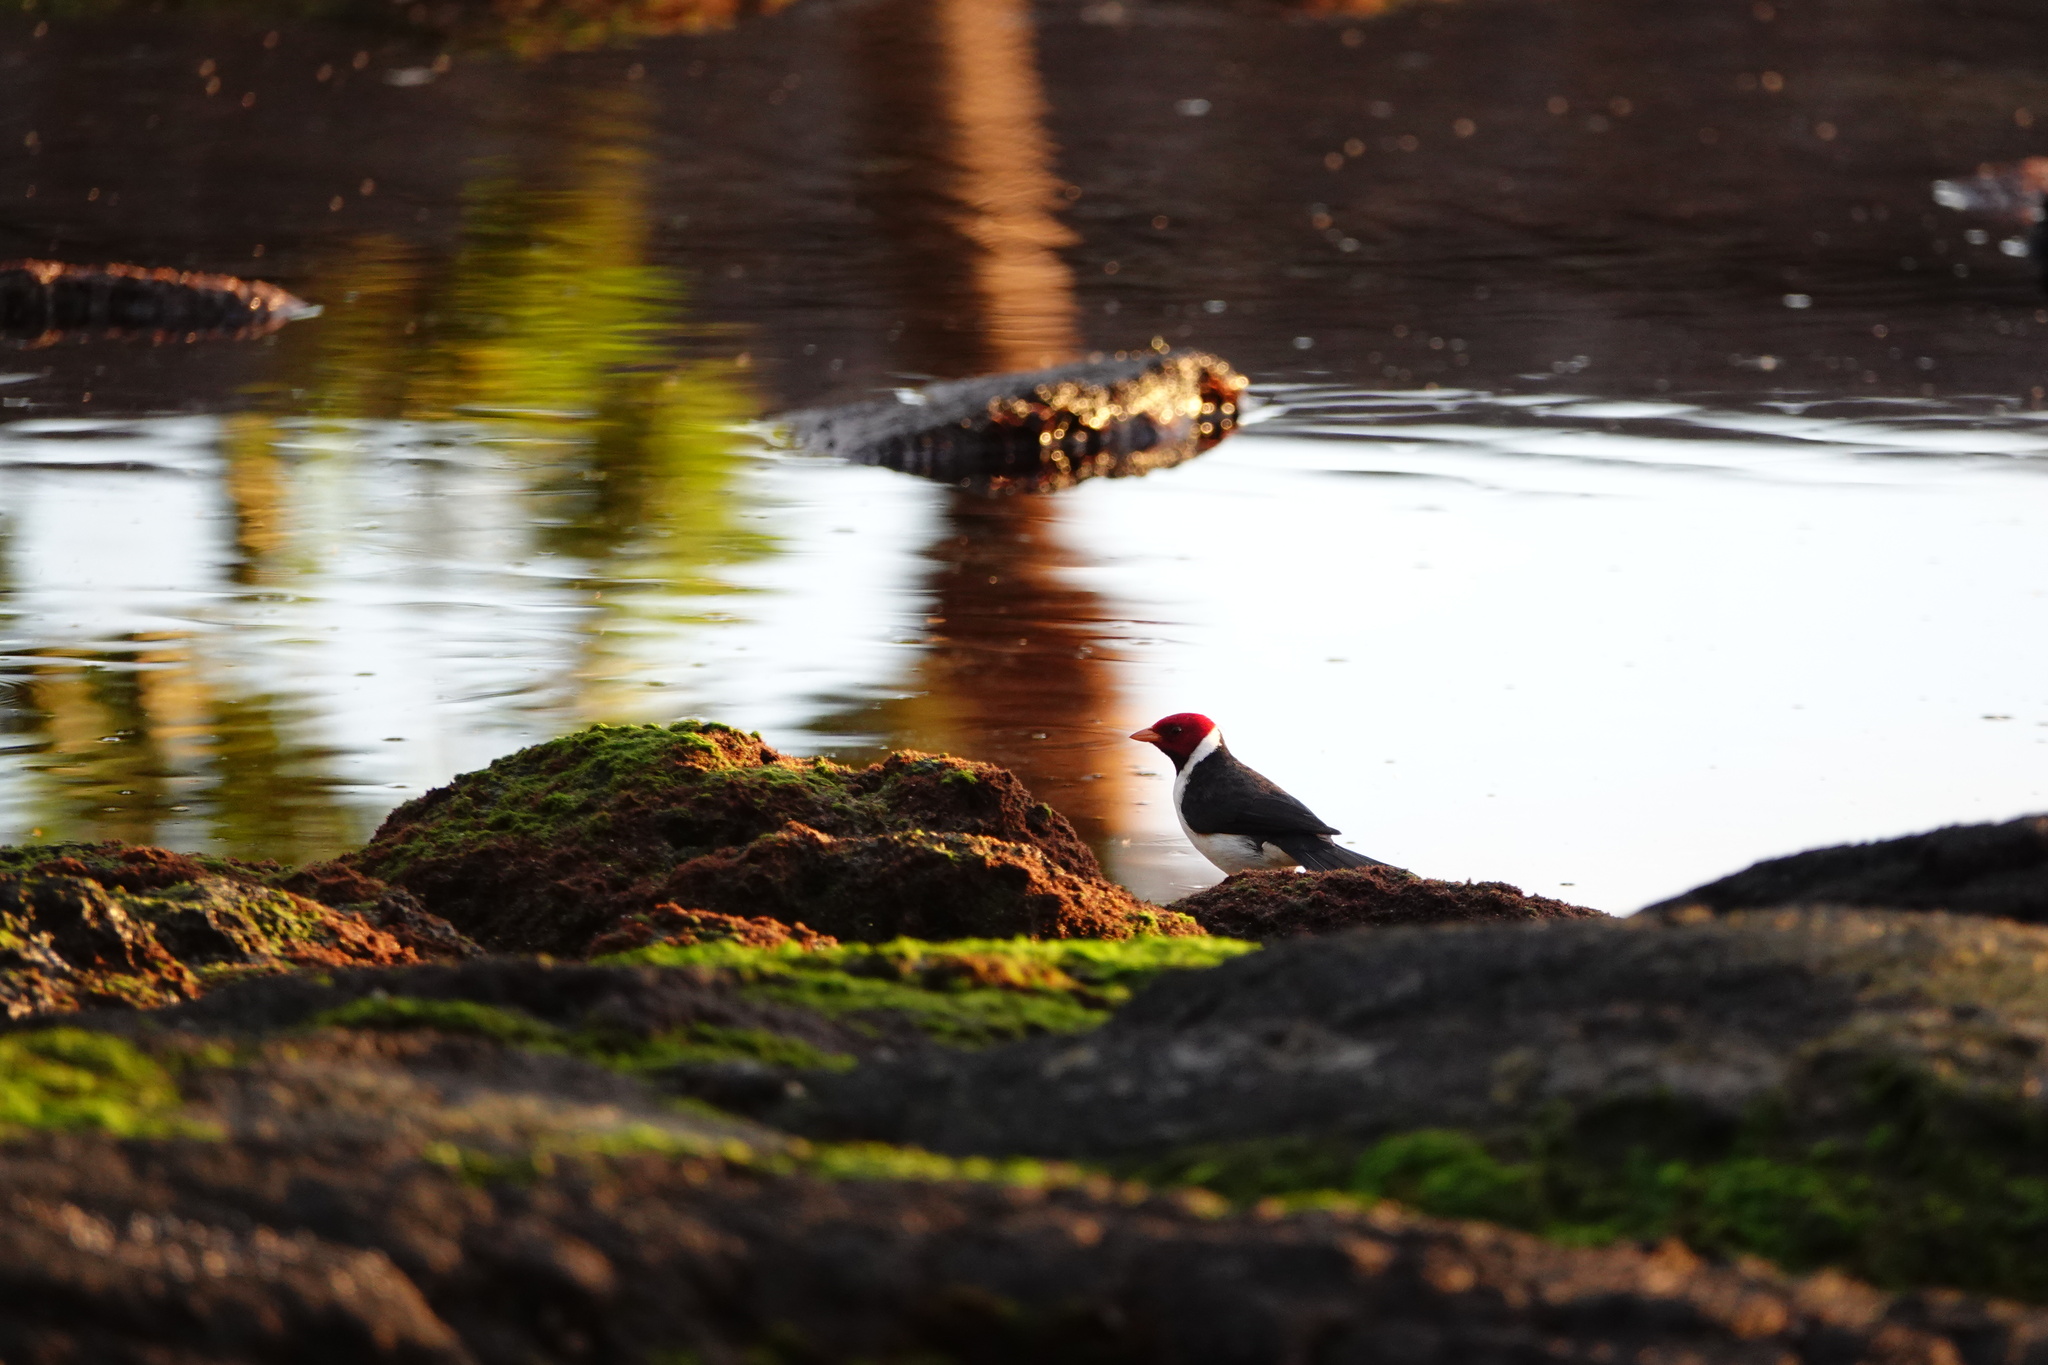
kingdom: Animalia
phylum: Chordata
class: Aves
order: Passeriformes
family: Thraupidae
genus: Paroaria
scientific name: Paroaria capitata
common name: Yellow-billed cardinal
